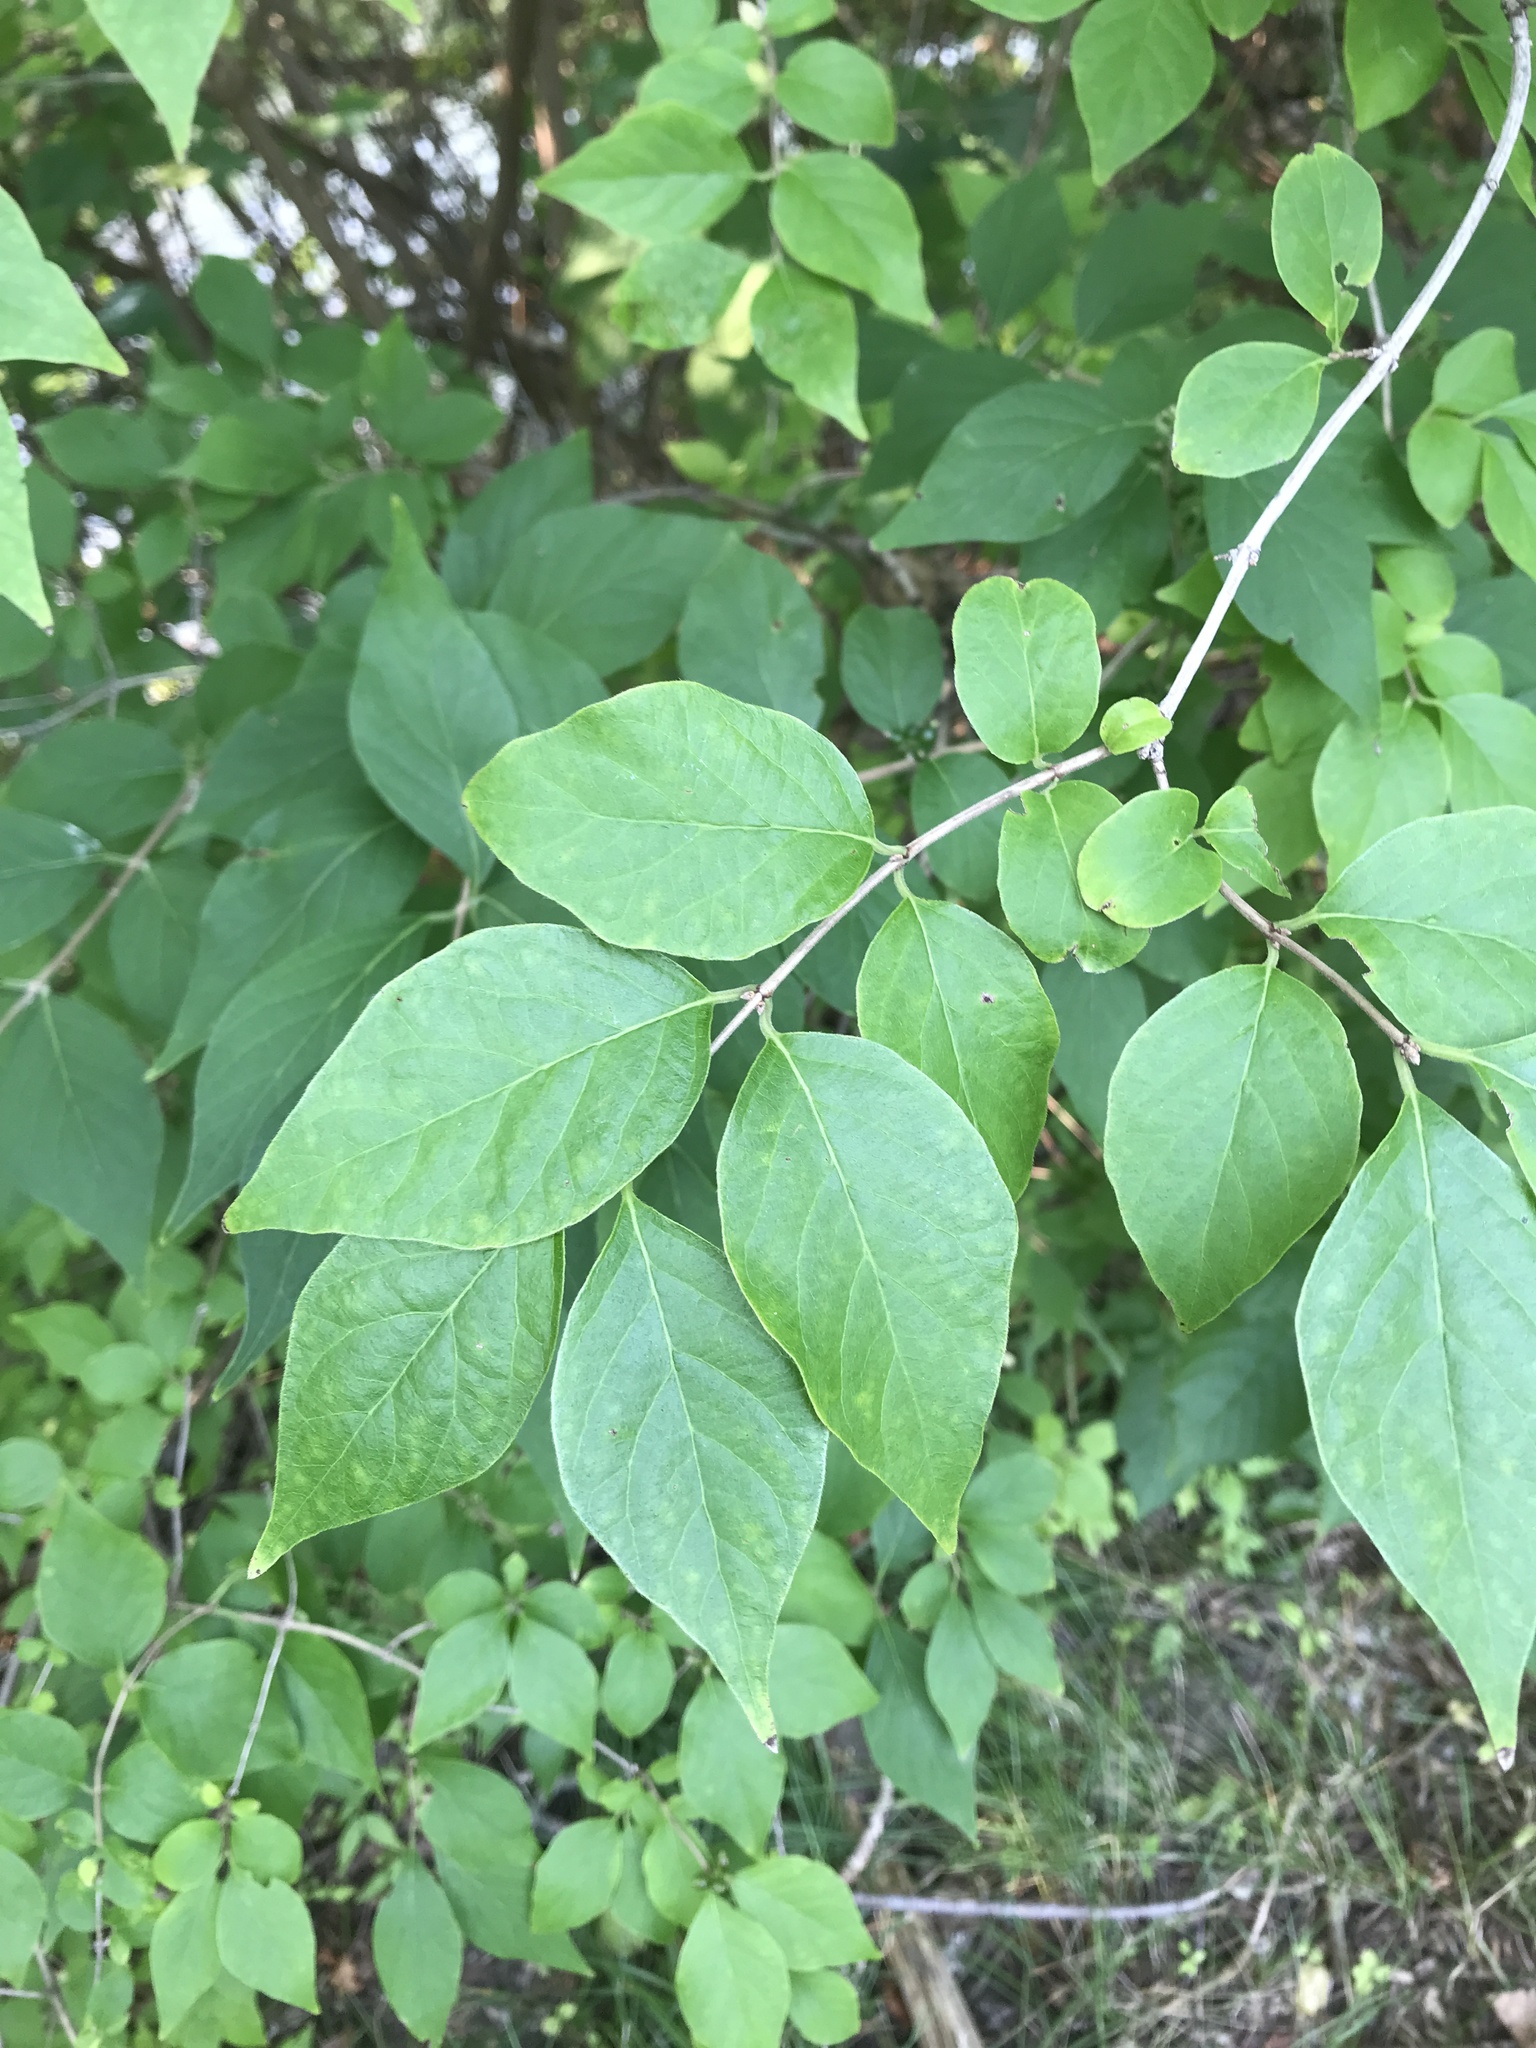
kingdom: Plantae
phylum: Tracheophyta
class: Magnoliopsida
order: Dipsacales
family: Caprifoliaceae
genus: Lonicera
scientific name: Lonicera maackii
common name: Amur honeysuckle
